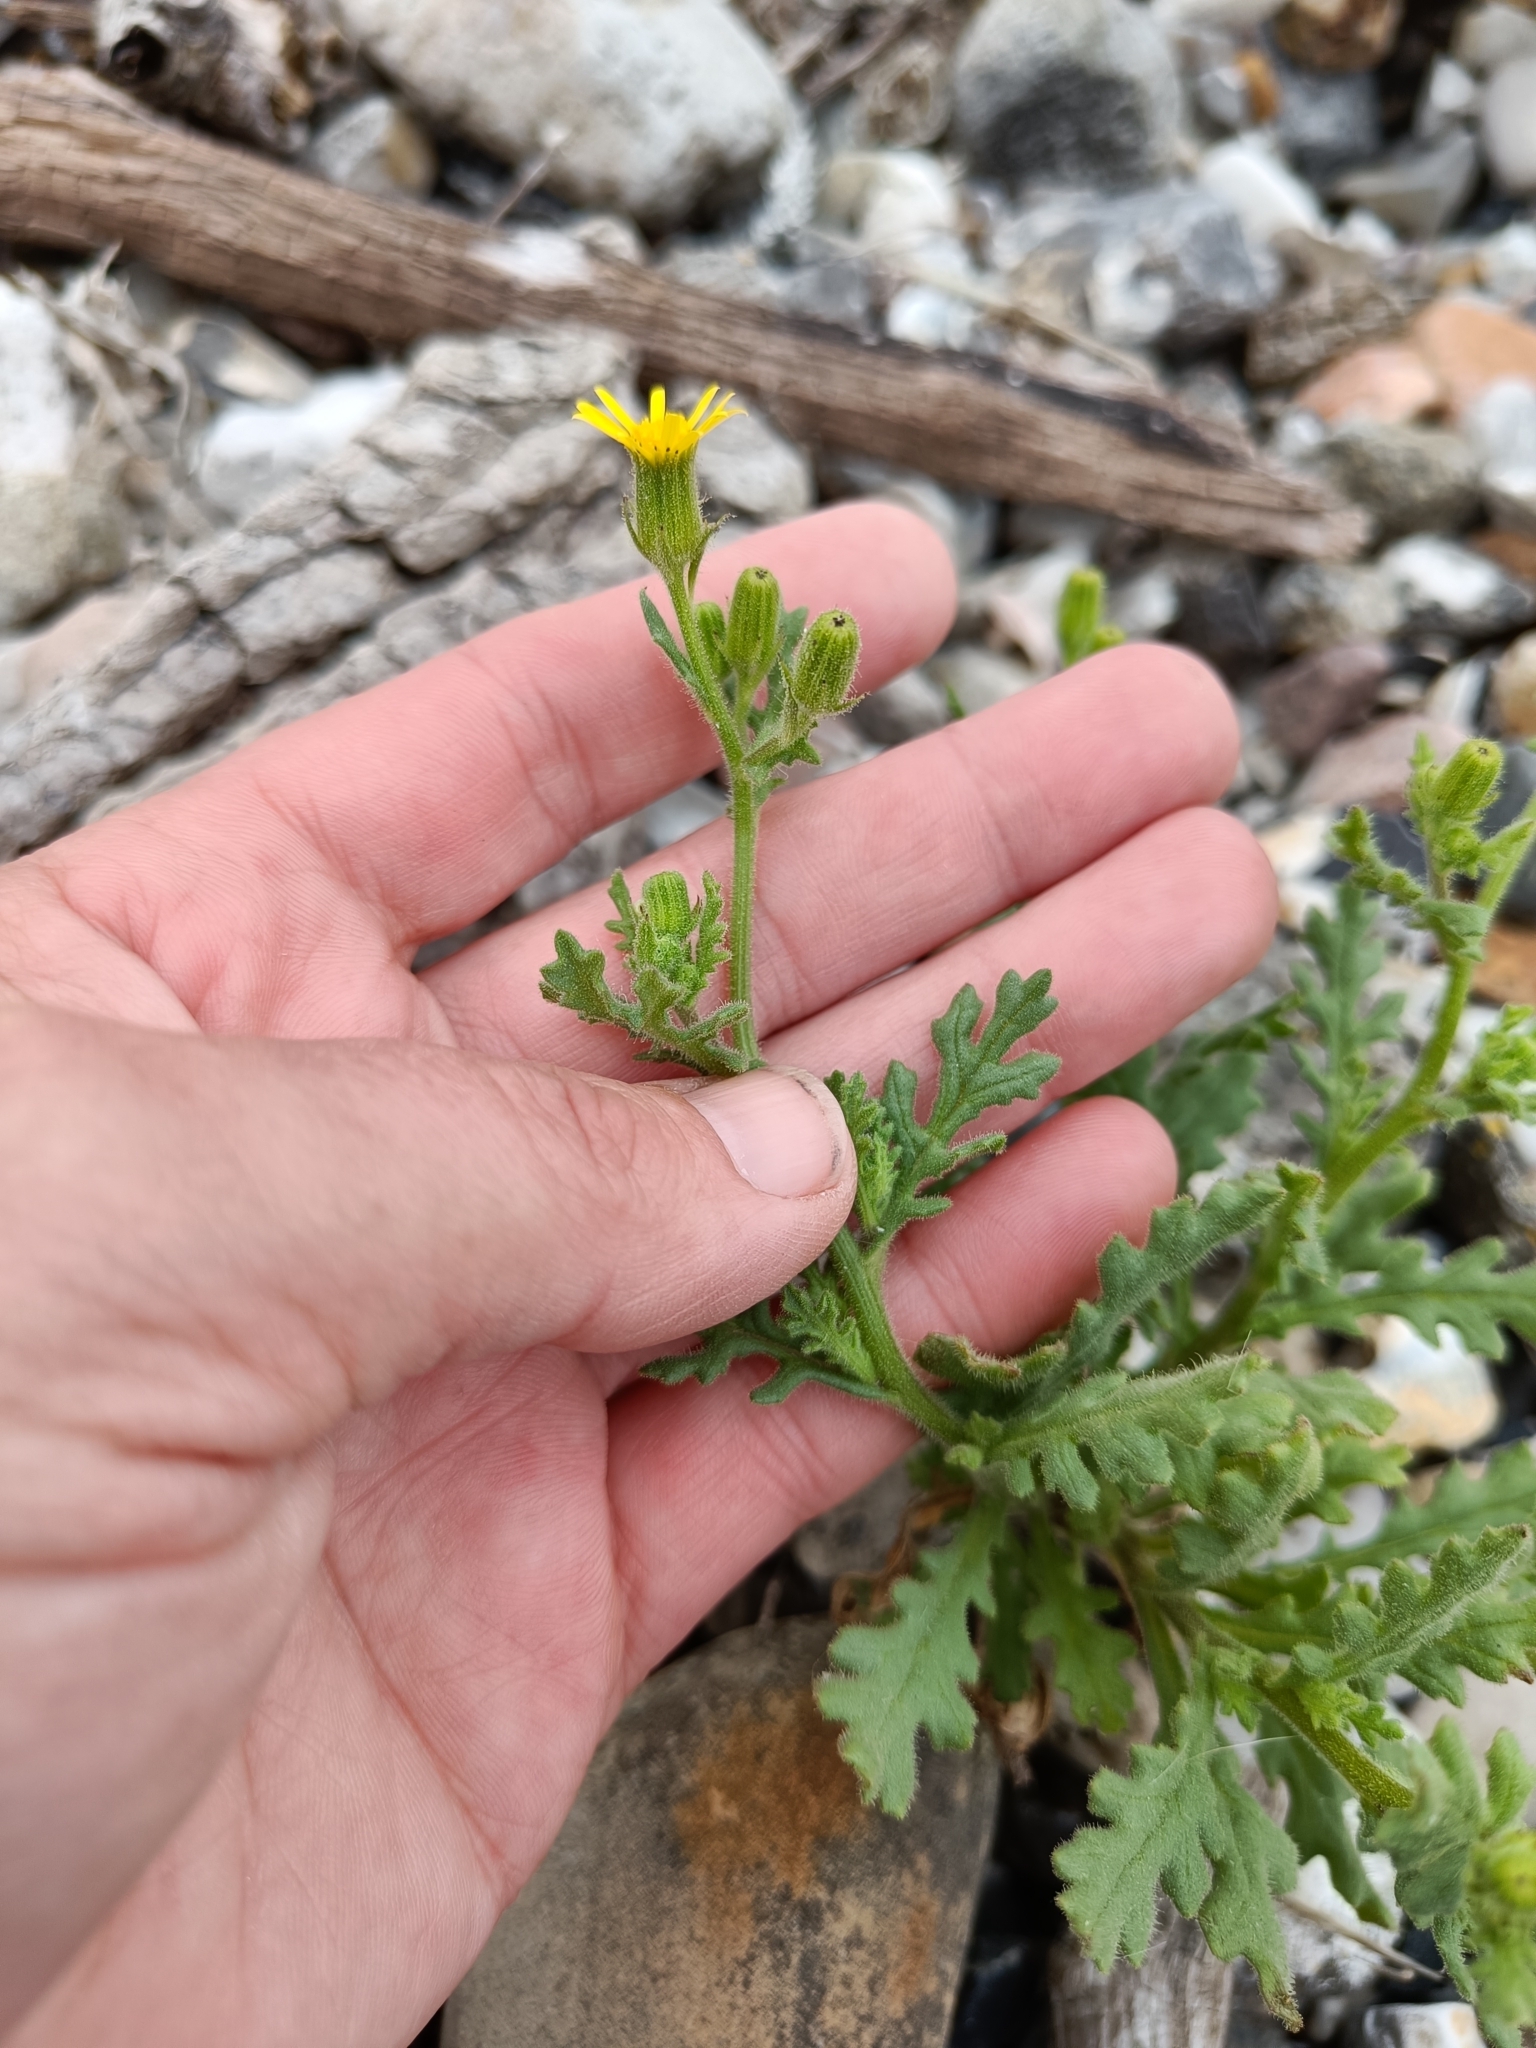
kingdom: Plantae
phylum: Tracheophyta
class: Magnoliopsida
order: Asterales
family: Asteraceae
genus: Senecio
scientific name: Senecio viscosus
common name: Sticky groundsel
